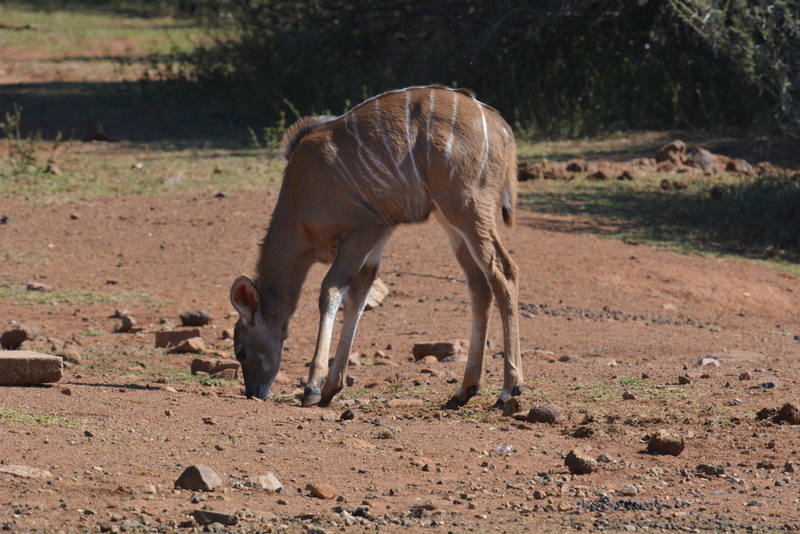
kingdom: Animalia
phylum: Chordata
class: Mammalia
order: Artiodactyla
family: Bovidae
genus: Tragelaphus
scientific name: Tragelaphus strepsiceros
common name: Greater kudu
